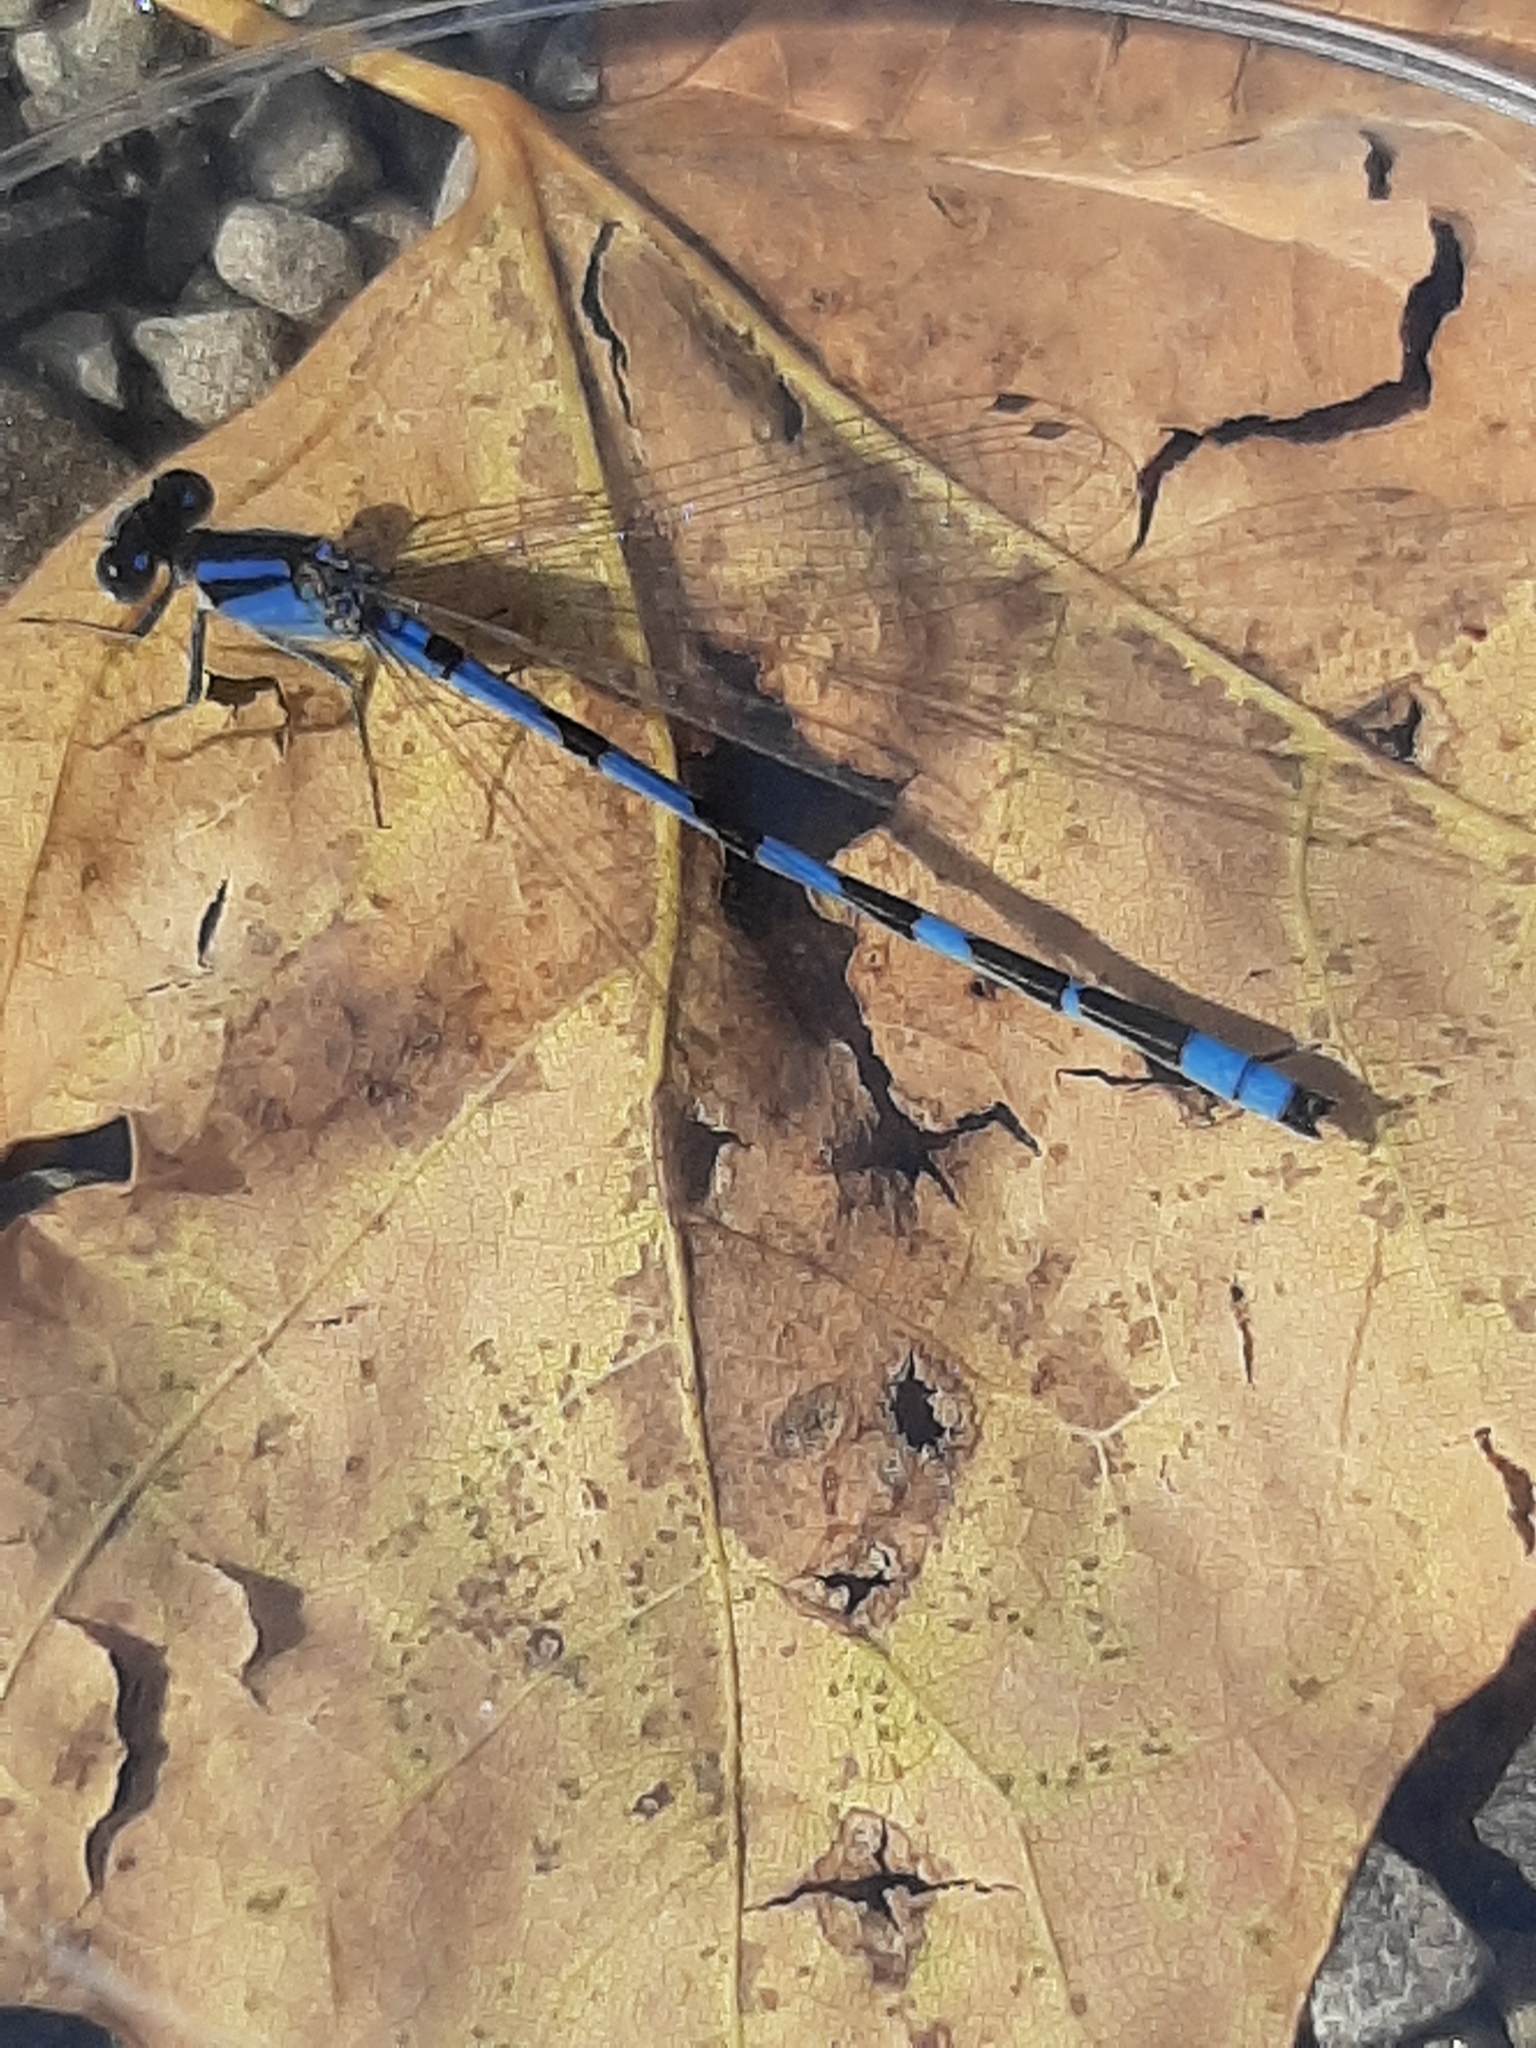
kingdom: Animalia
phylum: Arthropoda
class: Insecta
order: Odonata
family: Coenagrionidae
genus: Enallagma
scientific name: Enallagma civile
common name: Damselfly
